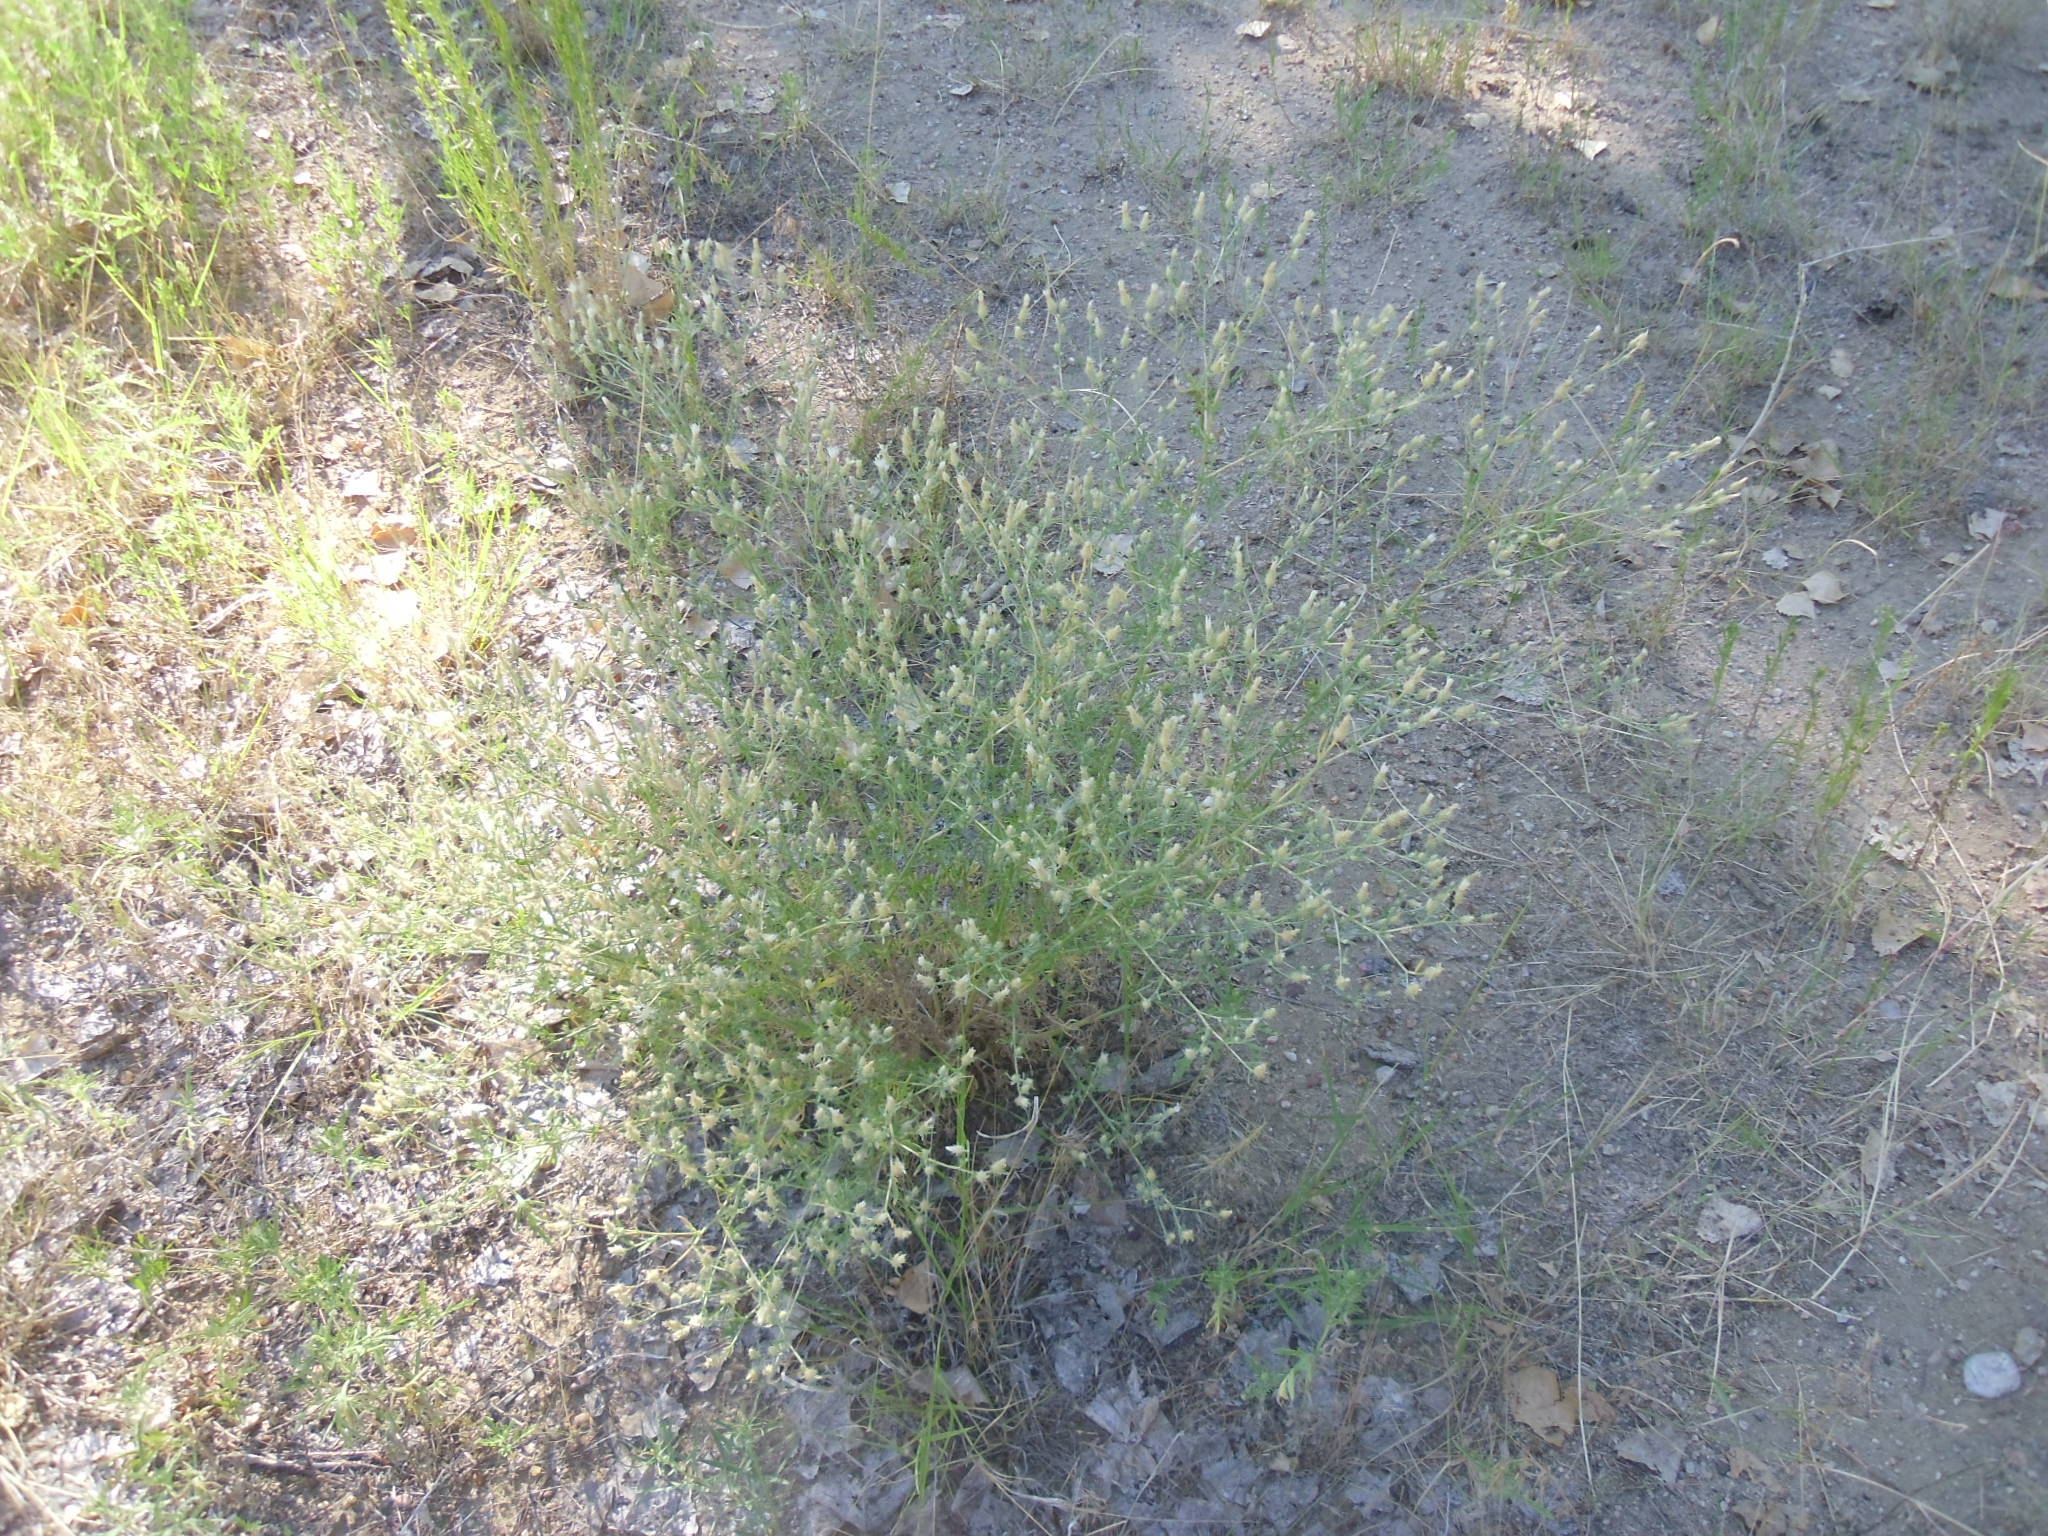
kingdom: Plantae
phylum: Tracheophyta
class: Magnoliopsida
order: Asterales
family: Asteraceae
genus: Centaurea
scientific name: Centaurea diffusa
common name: Diffuse knapweed
